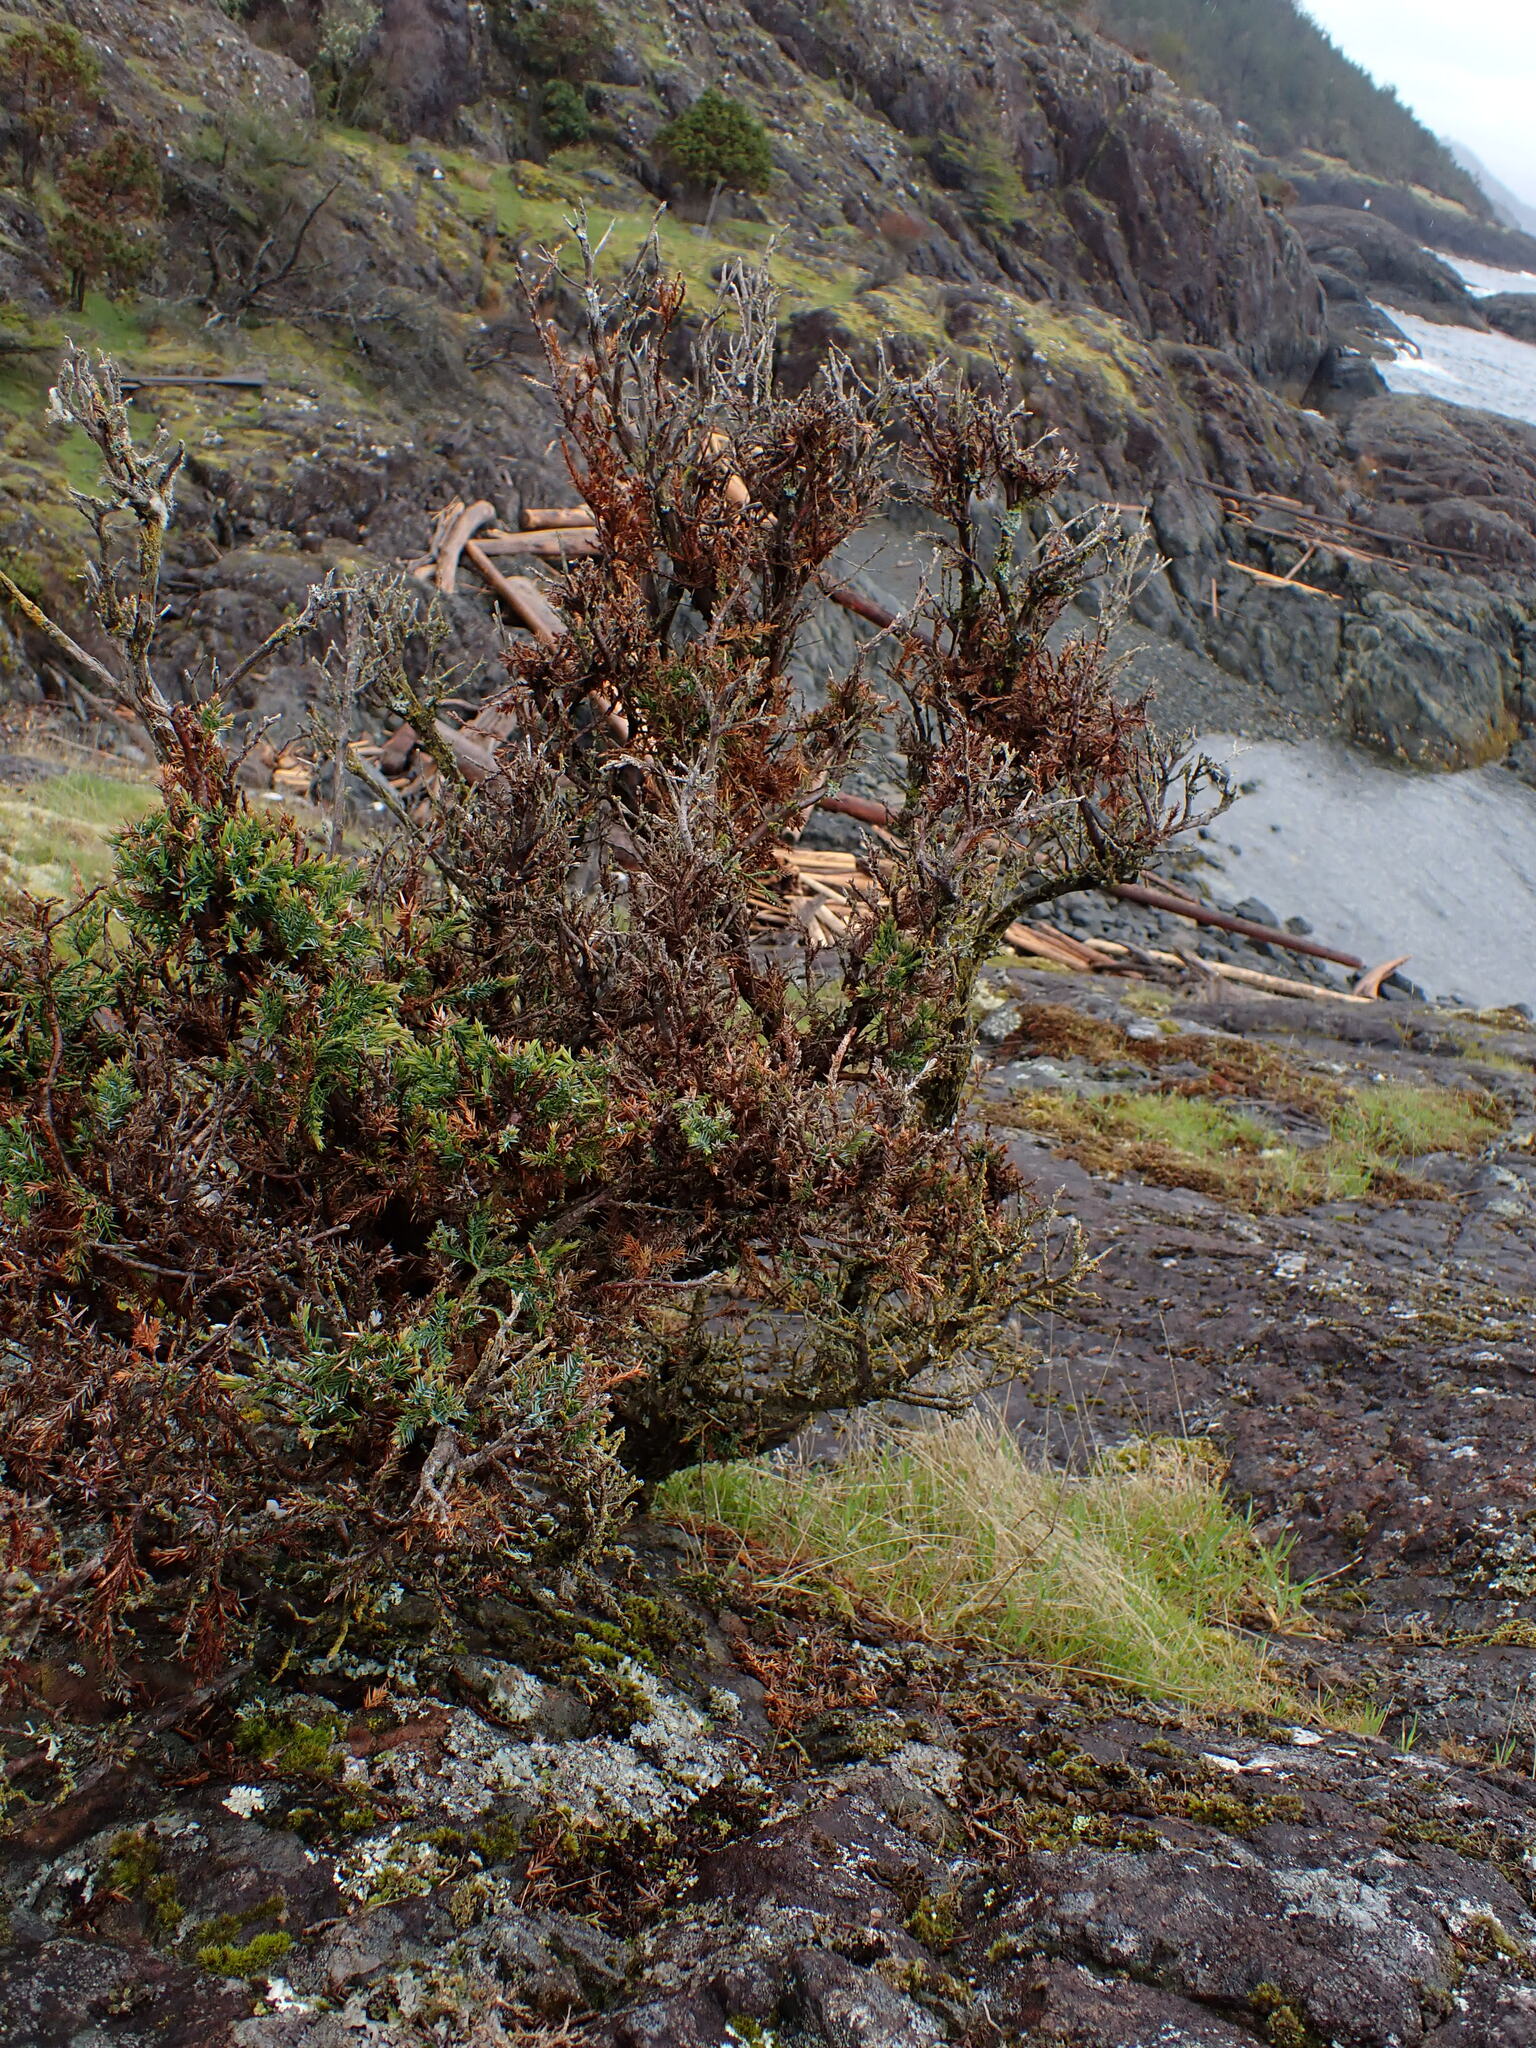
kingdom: Plantae
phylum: Tracheophyta
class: Pinopsida
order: Pinales
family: Cupressaceae
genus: Juniperus
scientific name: Juniperus scopulorum
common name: Rocky mountain juniper
